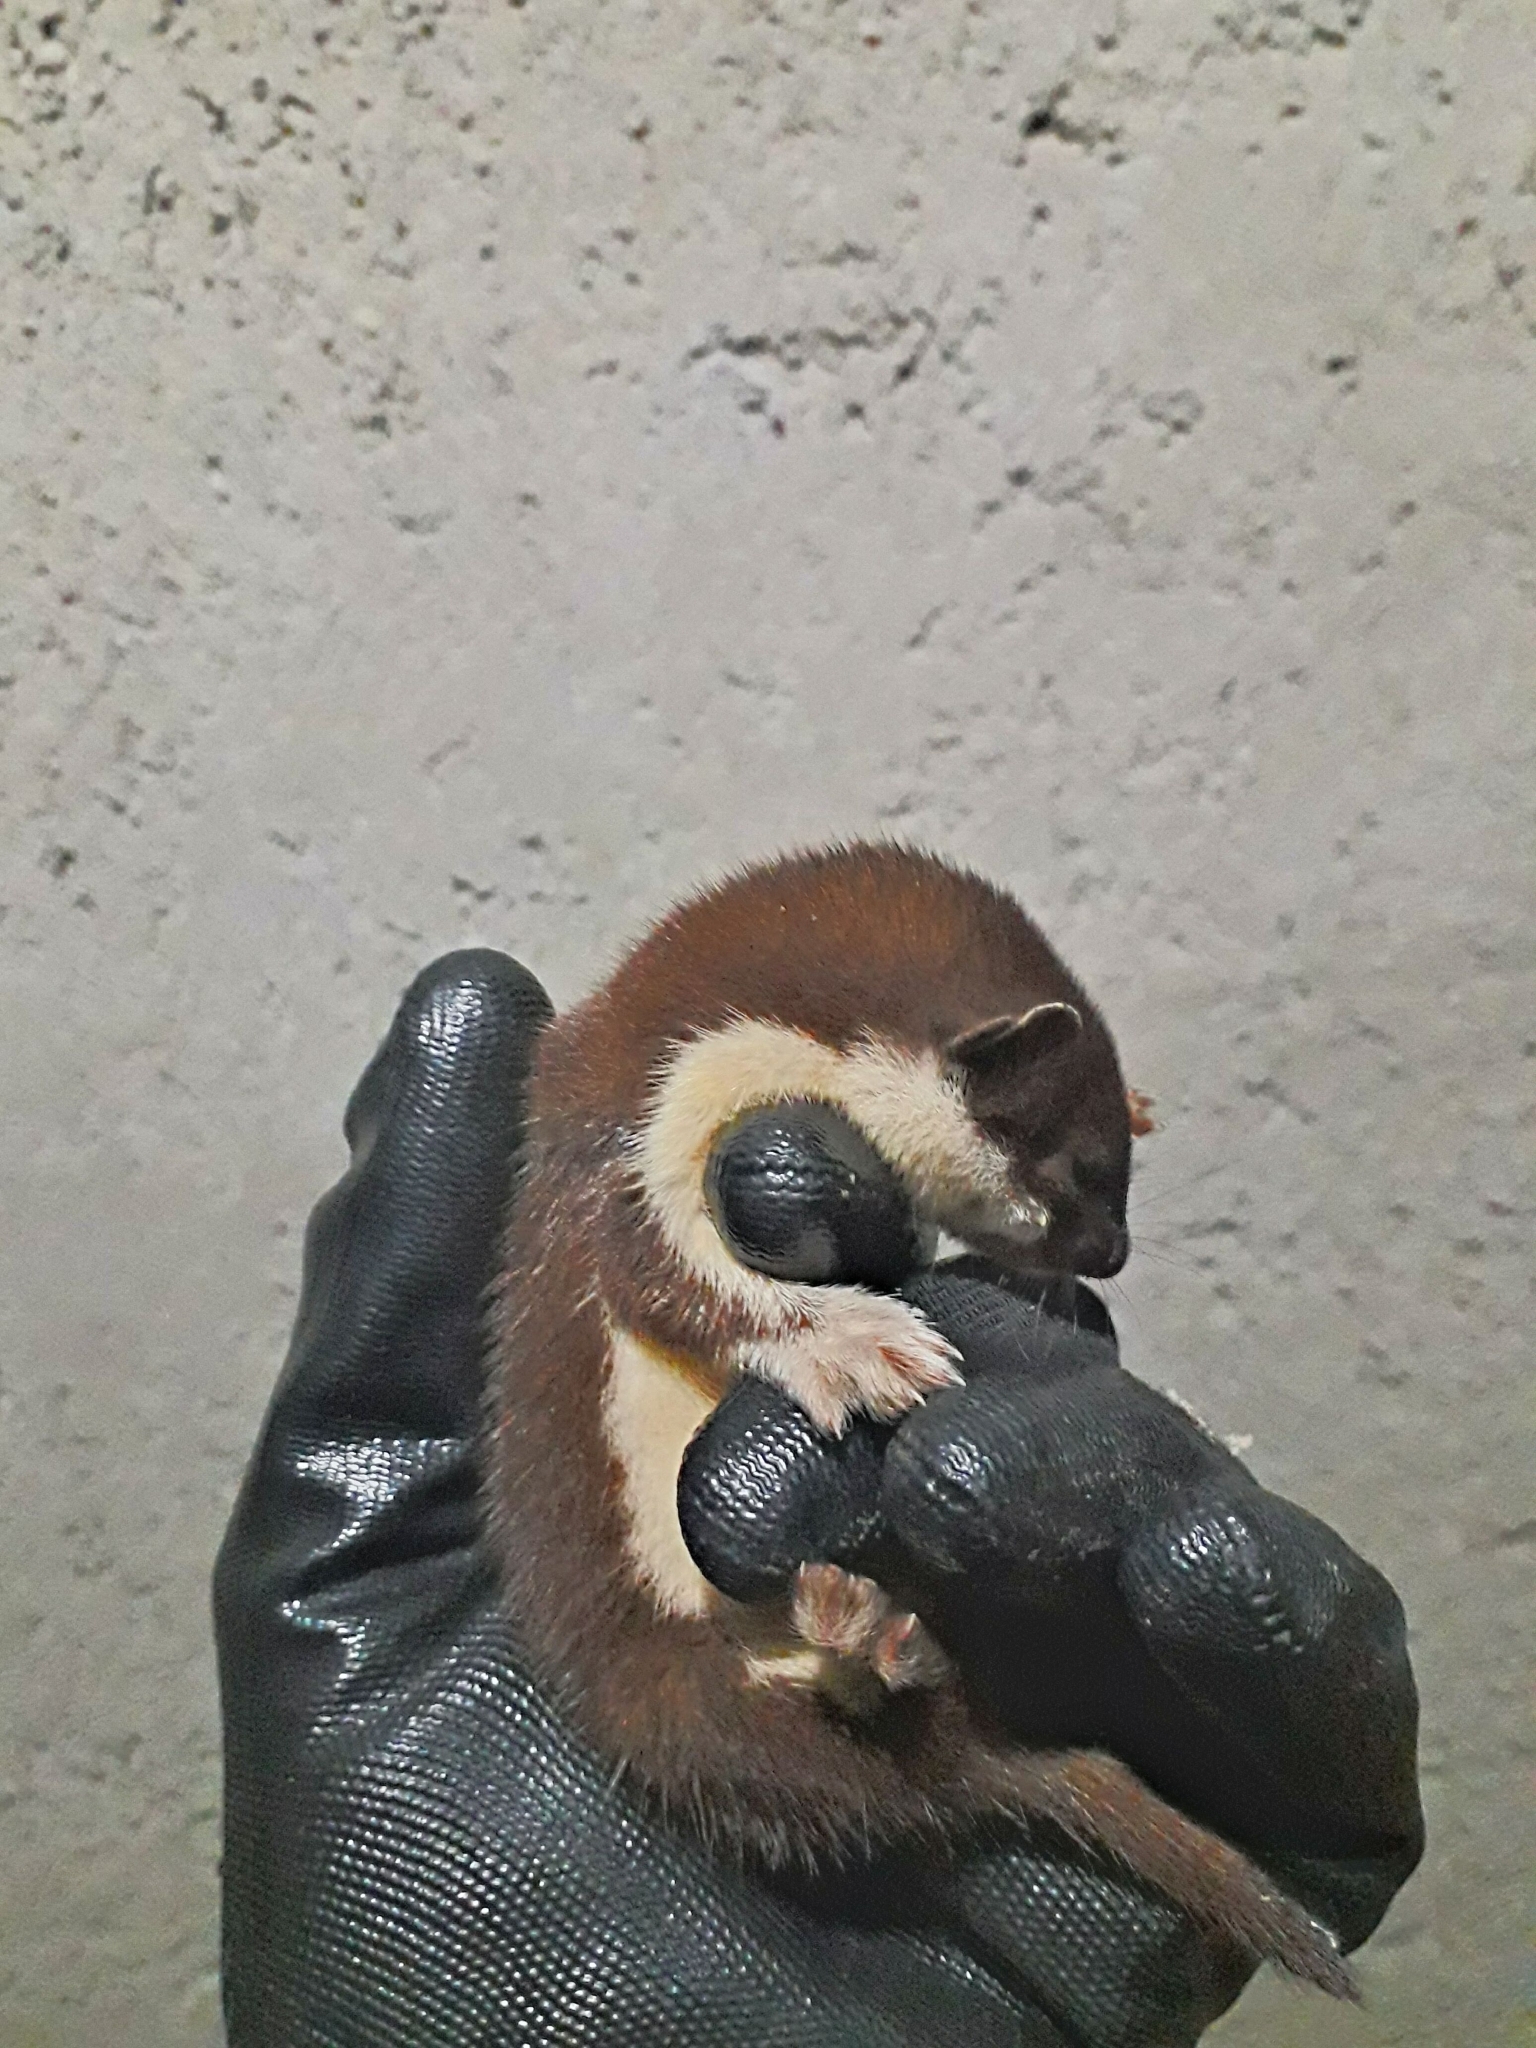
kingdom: Animalia
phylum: Chordata
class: Mammalia
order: Carnivora
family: Mustelidae
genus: Mustela
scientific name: Mustela nivalis
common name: Least weasel
